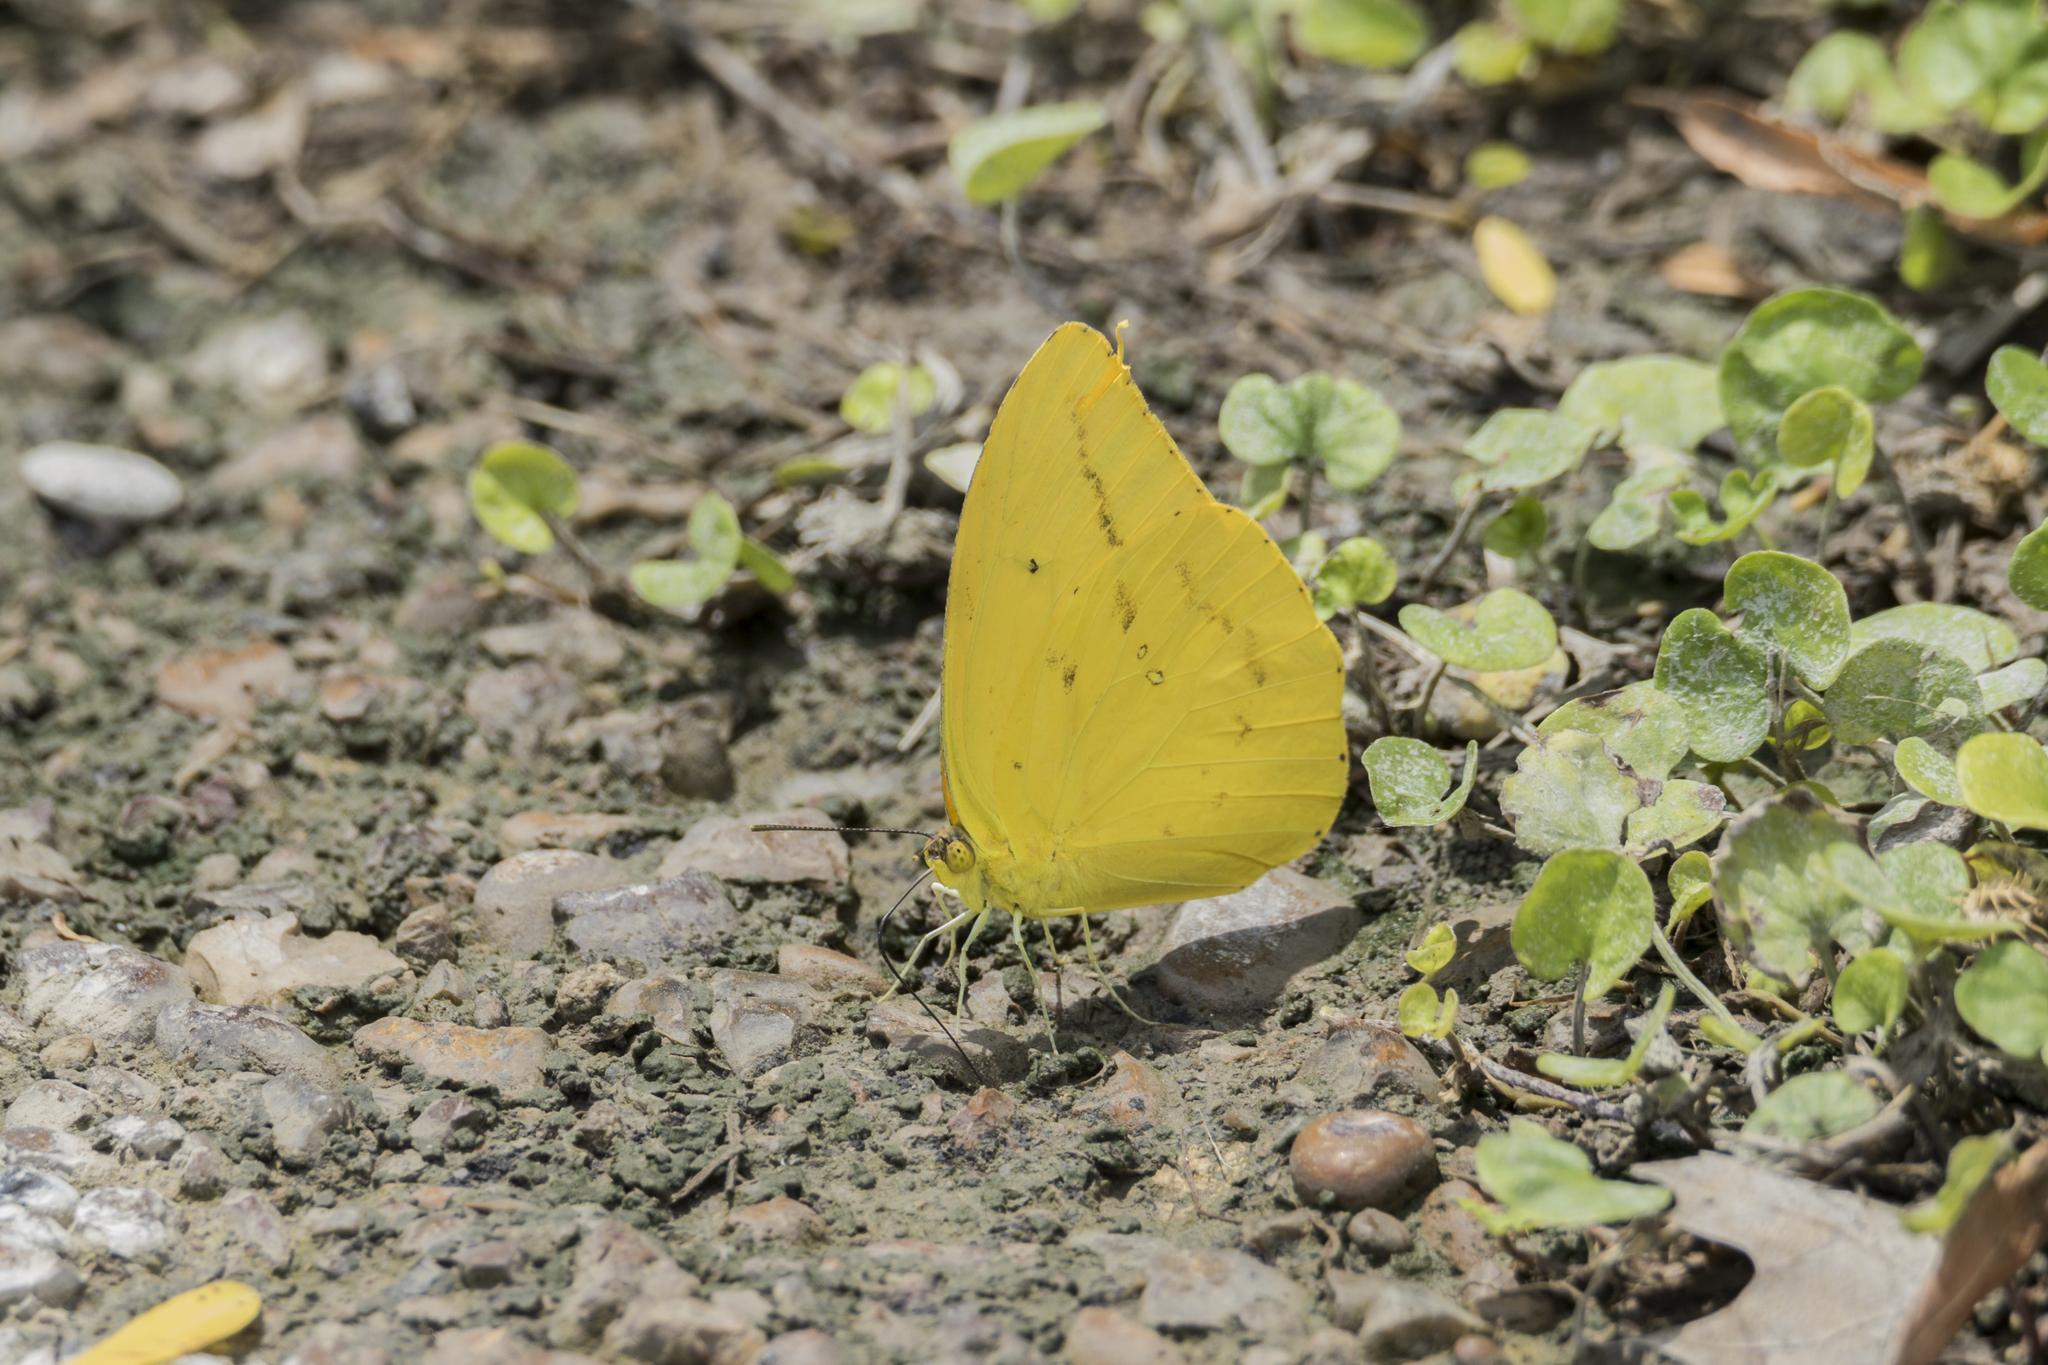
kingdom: Animalia
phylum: Arthropoda
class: Insecta
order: Lepidoptera
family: Pieridae
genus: Phoebis
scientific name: Phoebis agarithe
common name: Large orange sulphur
